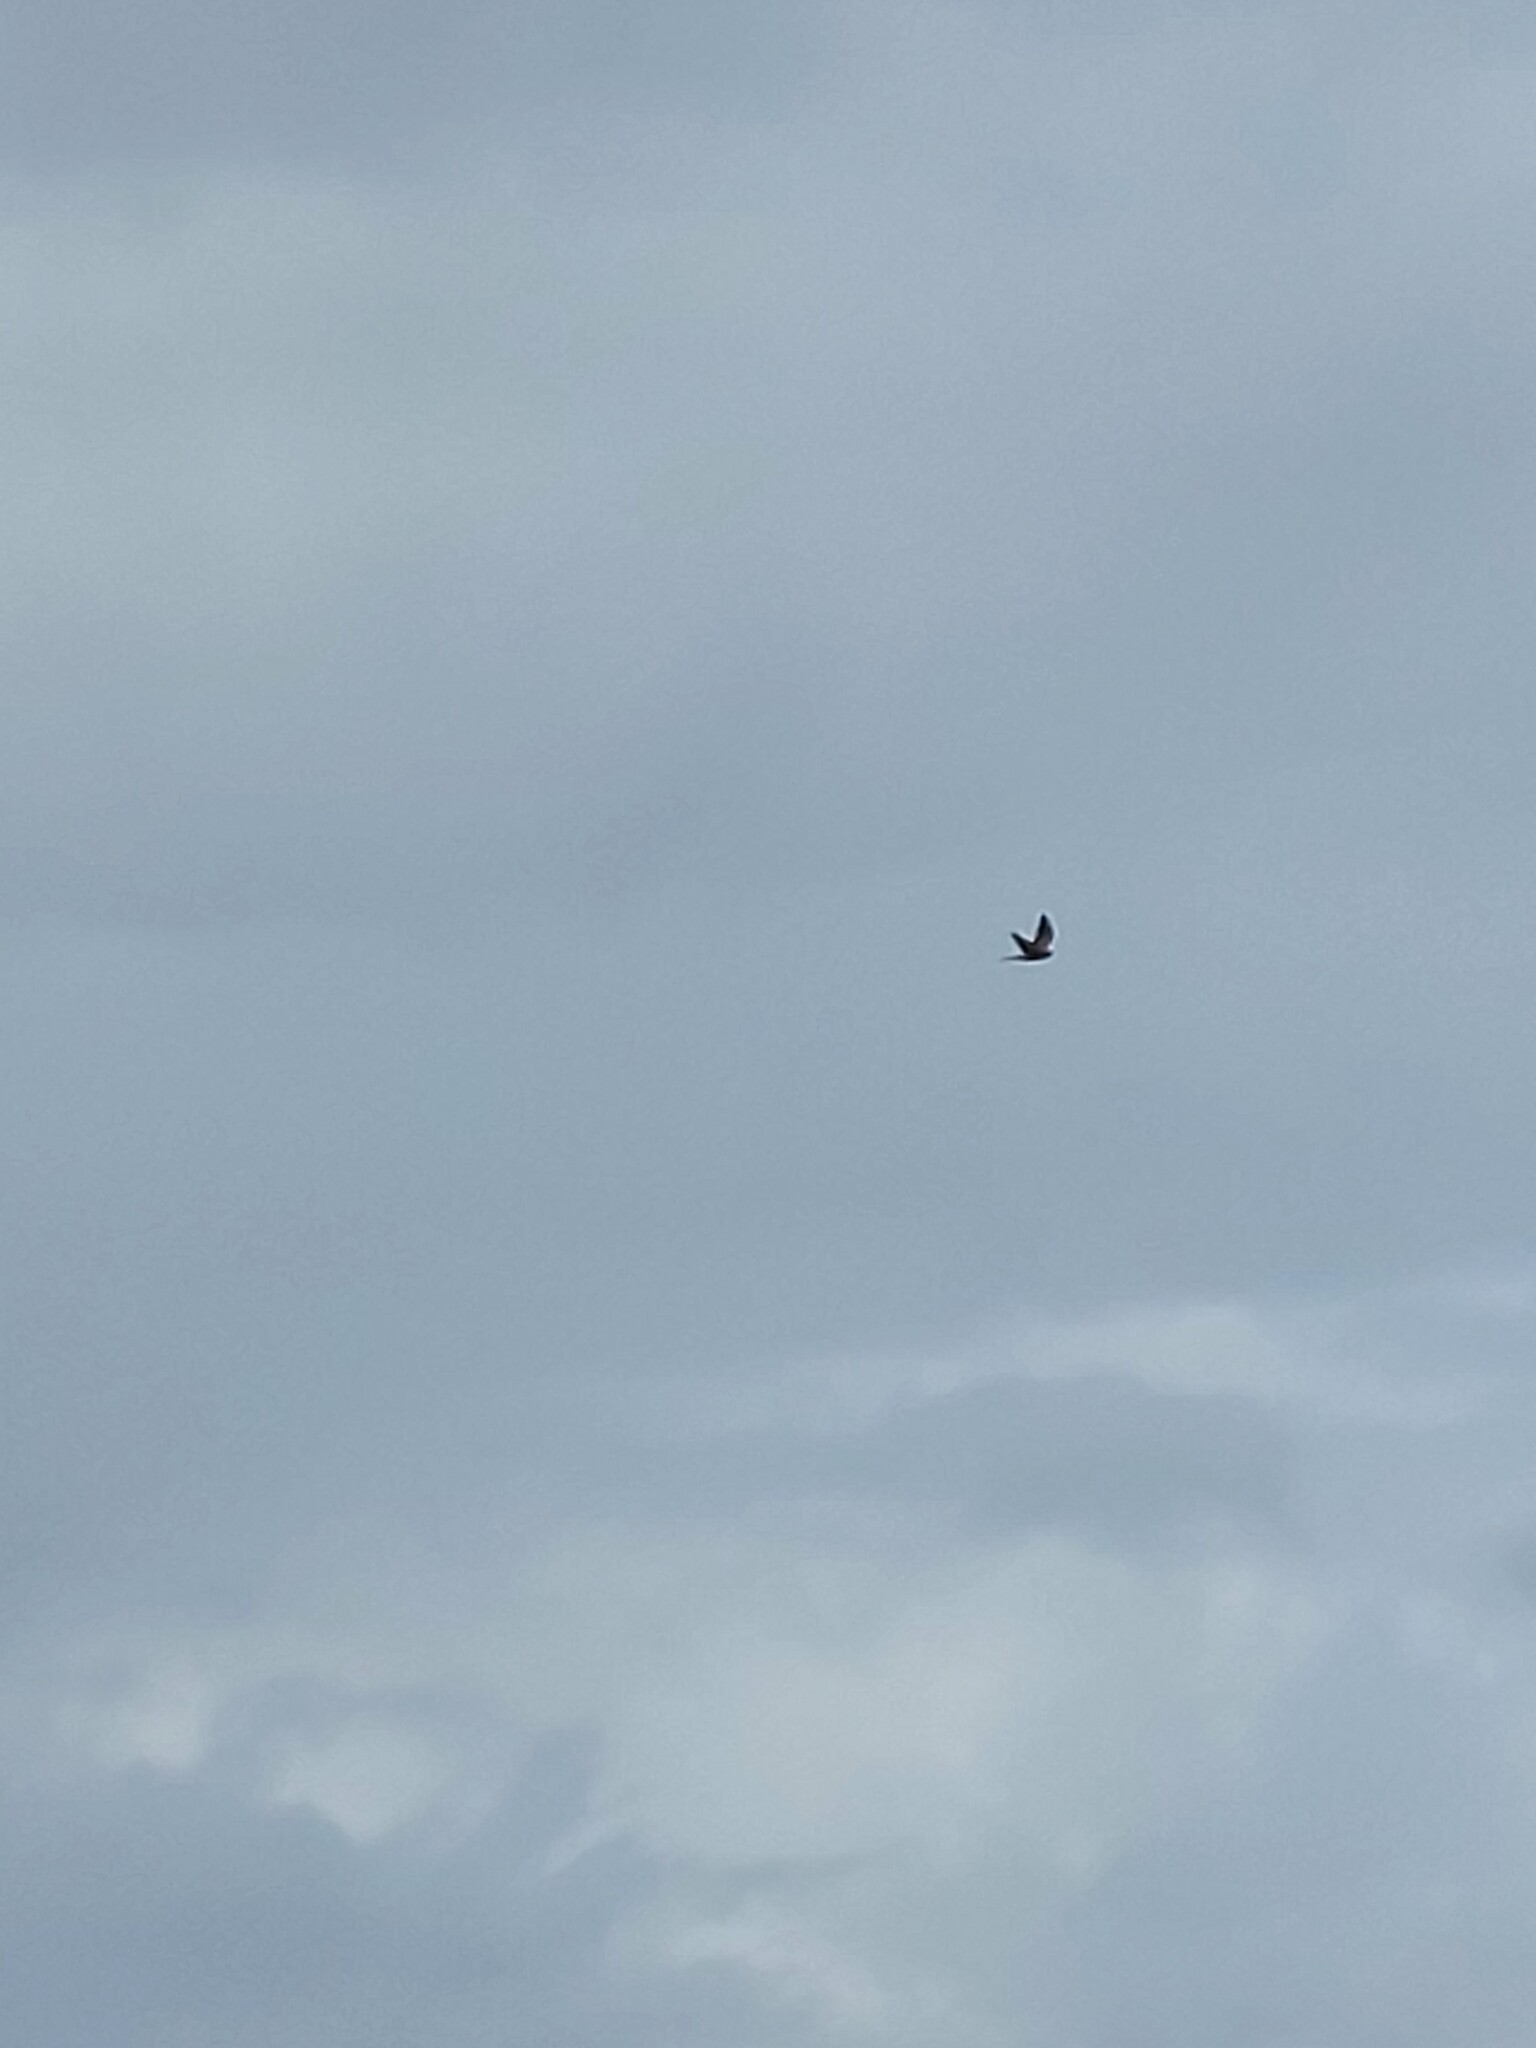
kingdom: Animalia
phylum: Chordata
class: Aves
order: Falconiformes
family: Falconidae
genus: Falco
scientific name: Falco tinnunculus
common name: Common kestrel
